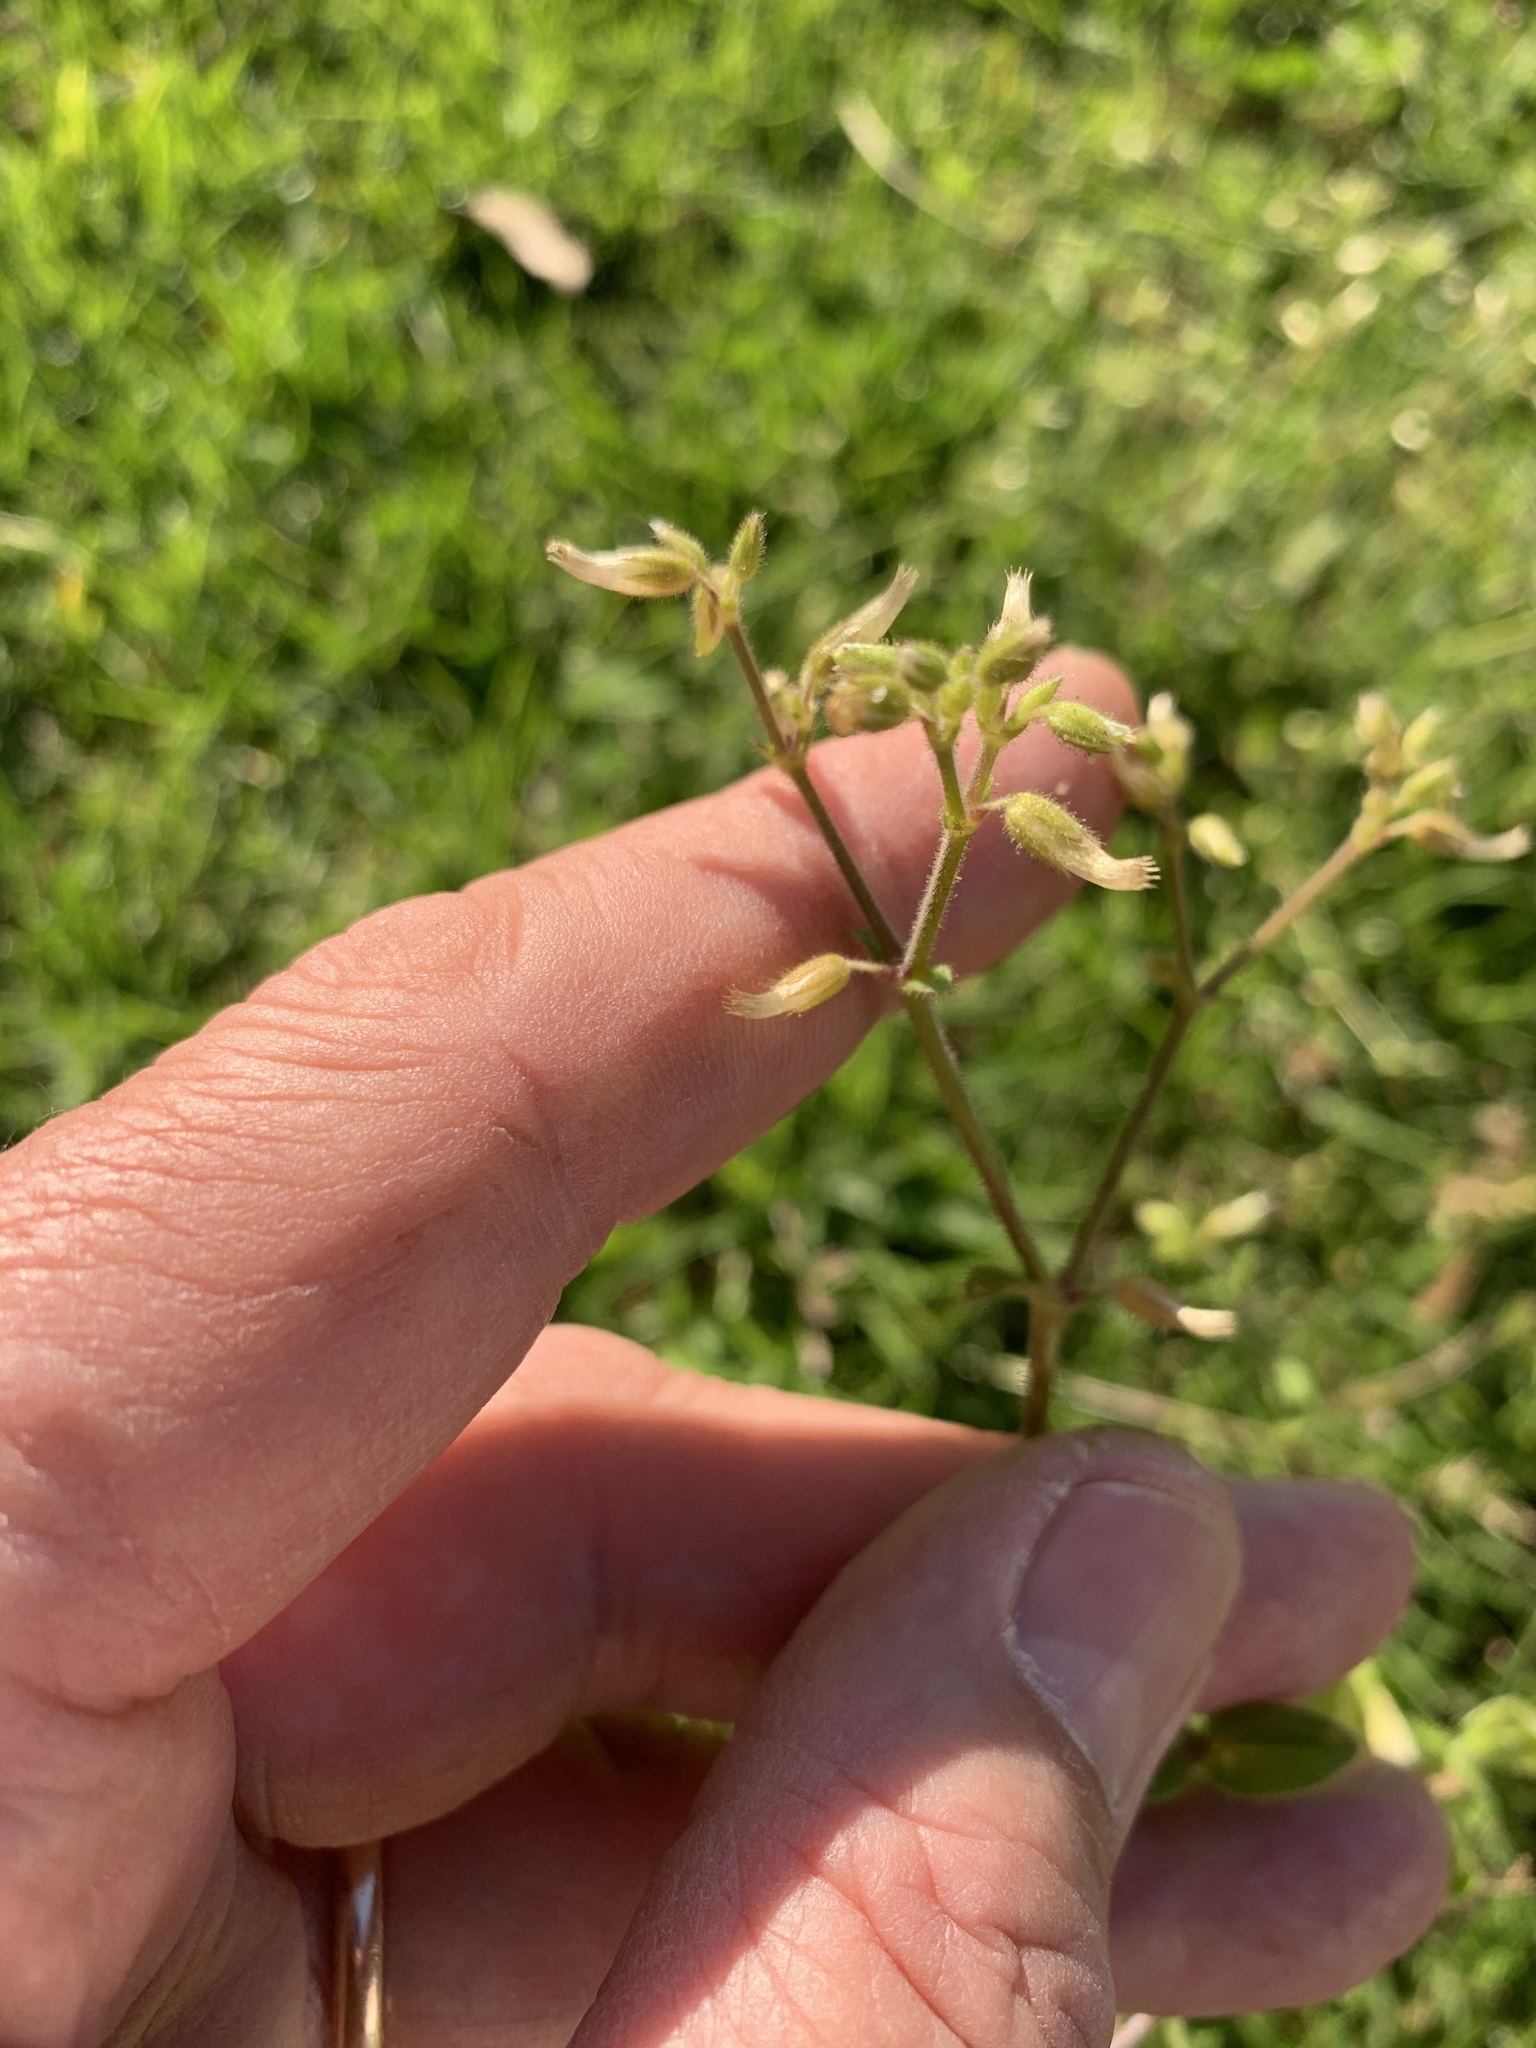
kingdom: Plantae
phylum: Tracheophyta
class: Magnoliopsida
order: Caryophyllales
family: Caryophyllaceae
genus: Cerastium
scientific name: Cerastium glomeratum
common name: Sticky chickweed
